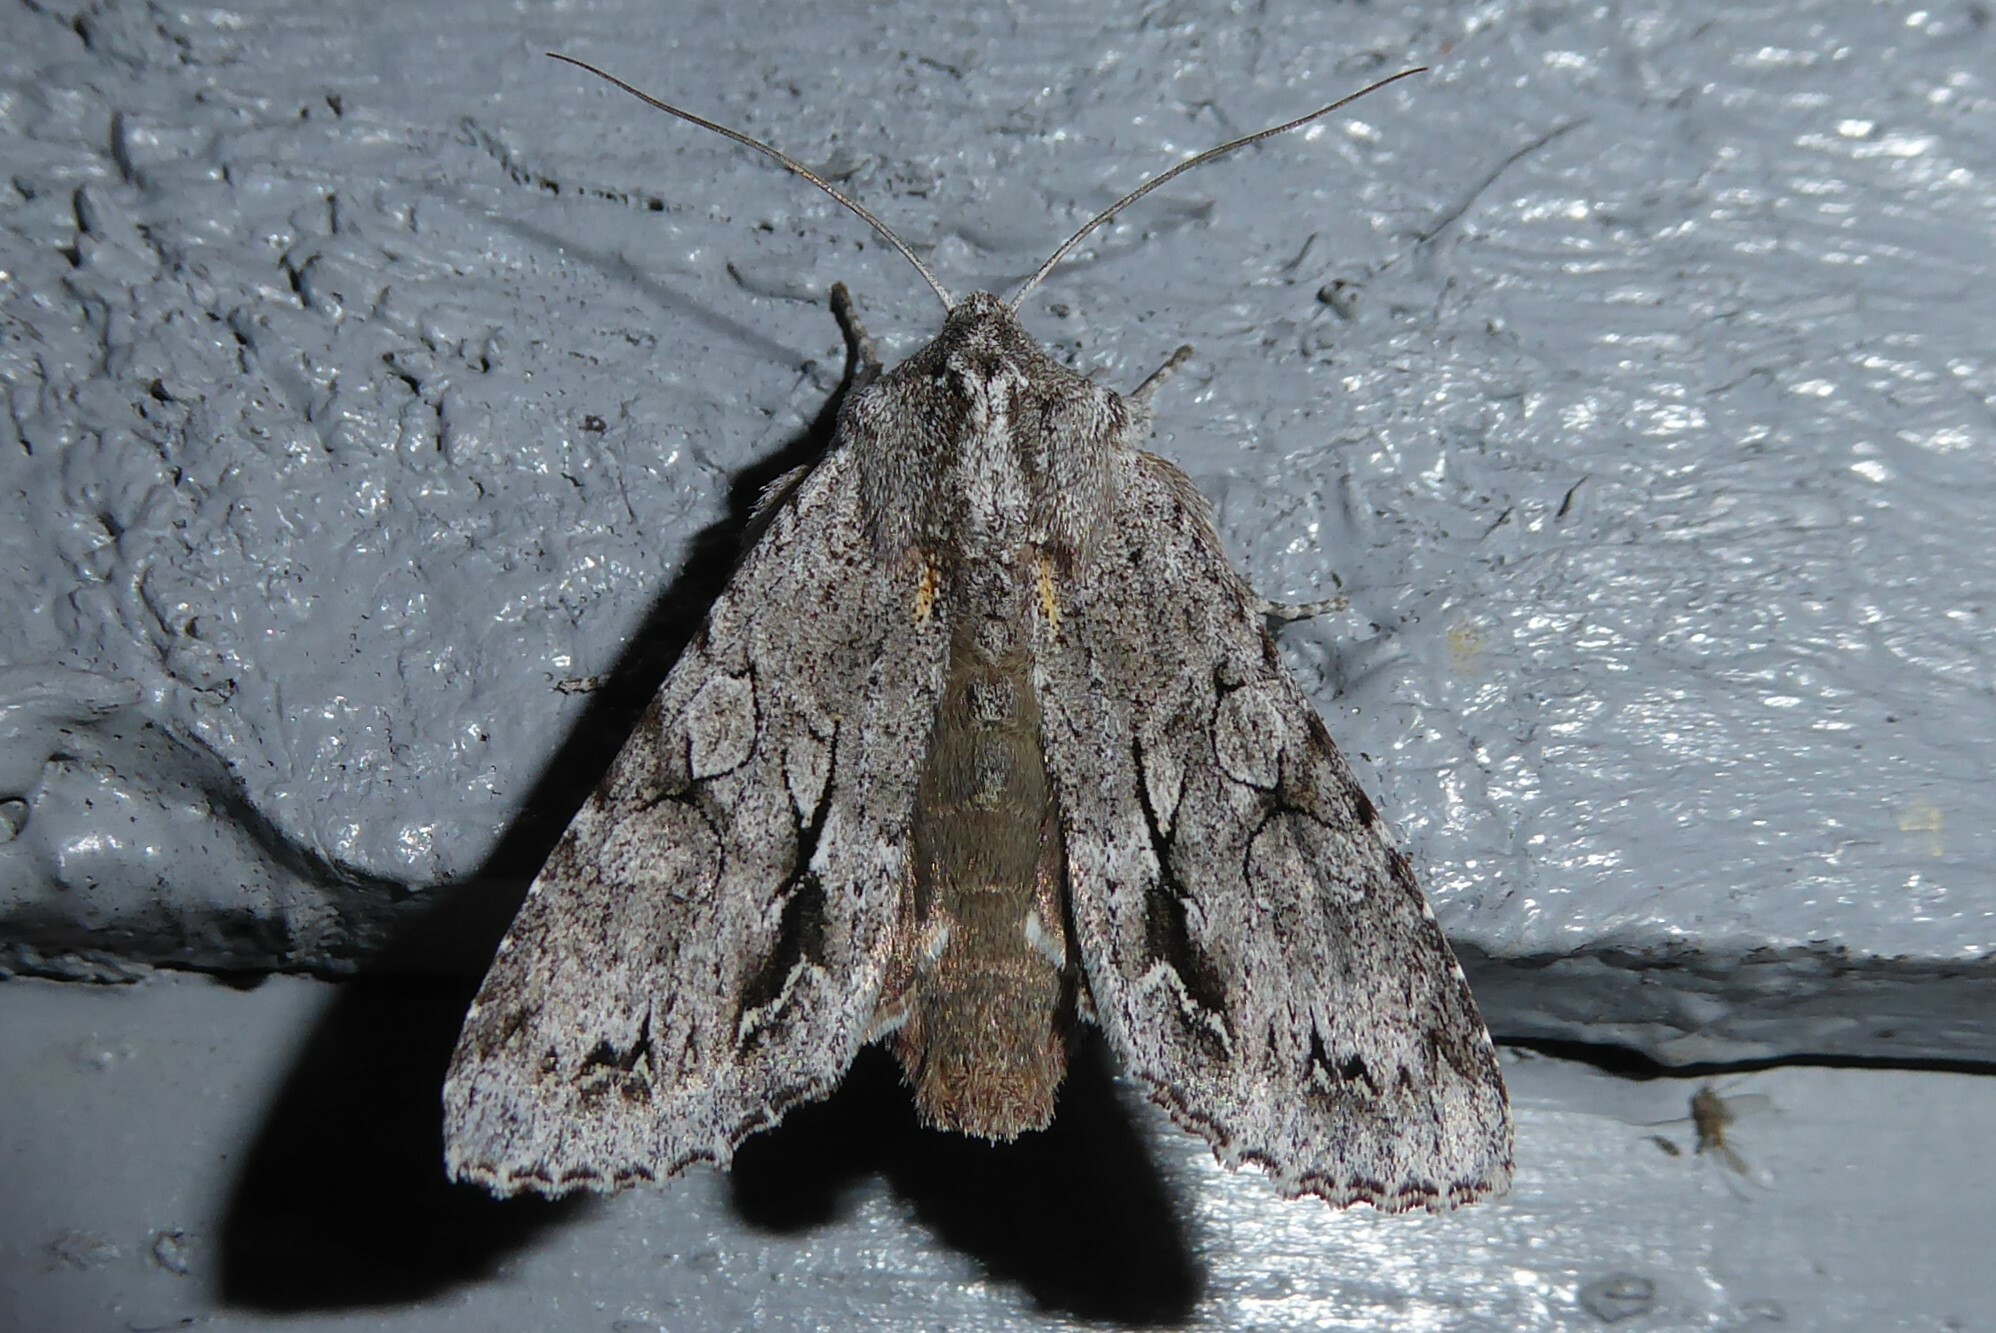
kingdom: Animalia
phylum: Arthropoda
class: Insecta
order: Lepidoptera
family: Noctuidae
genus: Ichneutica
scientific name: Ichneutica
